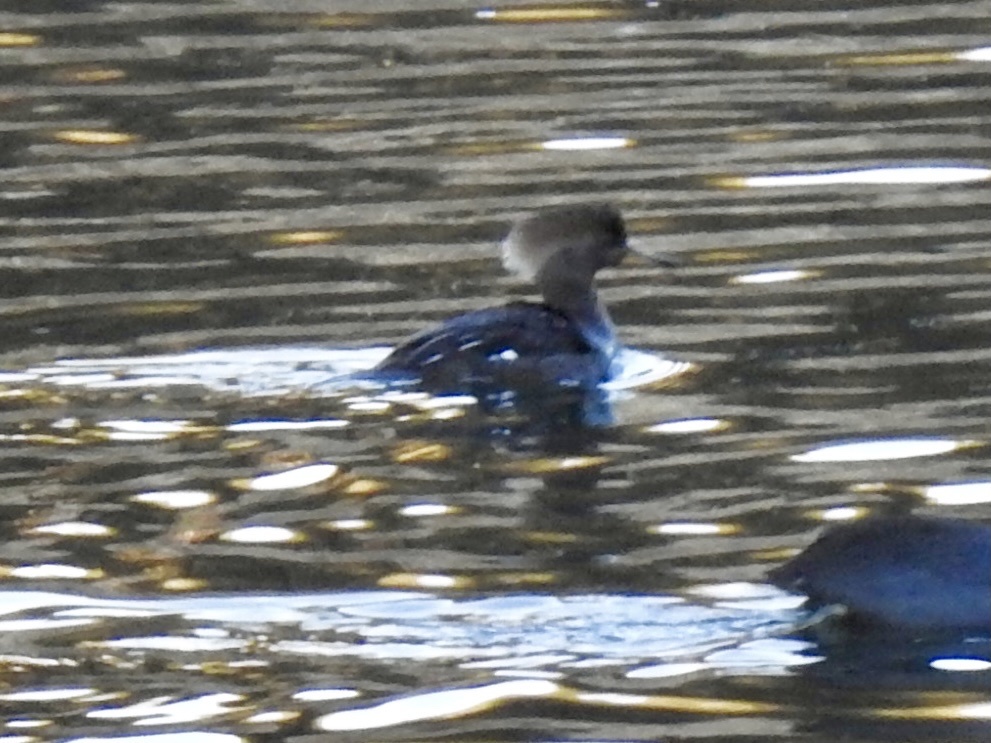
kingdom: Animalia
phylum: Chordata
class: Aves
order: Anseriformes
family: Anatidae
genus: Lophodytes
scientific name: Lophodytes cucullatus
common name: Hooded merganser
